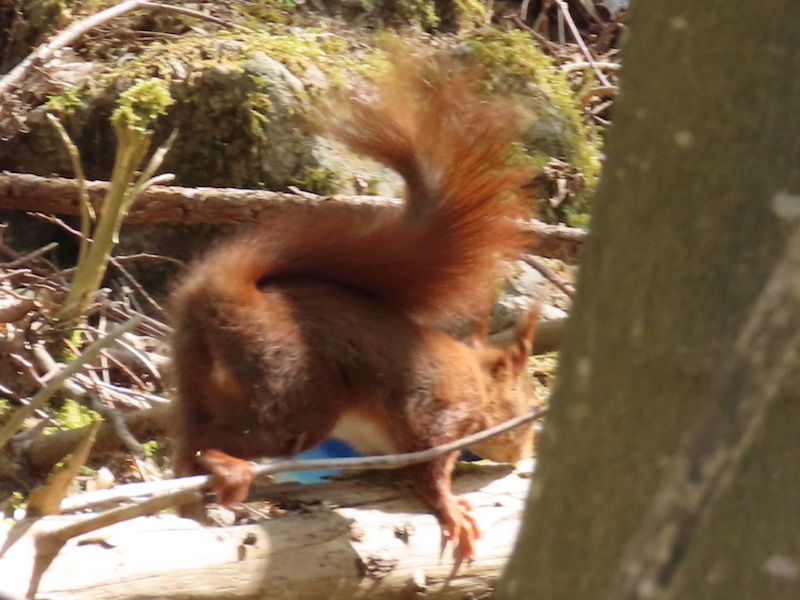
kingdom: Animalia
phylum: Chordata
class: Mammalia
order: Rodentia
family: Sciuridae
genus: Sciurus
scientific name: Sciurus vulgaris
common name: Eurasian red squirrel
